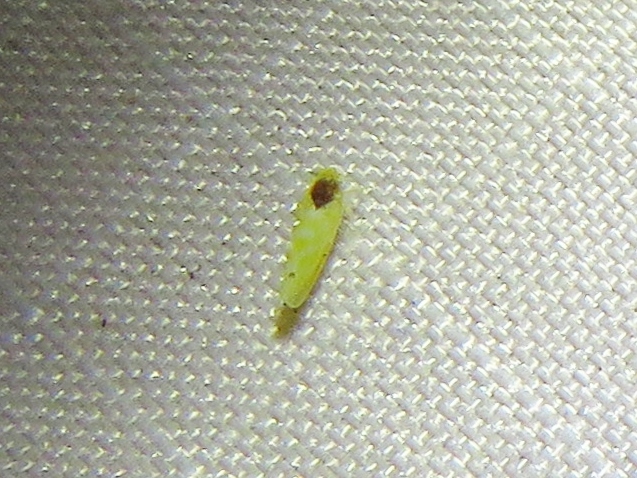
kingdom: Animalia
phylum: Arthropoda
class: Insecta
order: Hemiptera
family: Cicadellidae
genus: Eratoneura
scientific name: Eratoneura ardens
